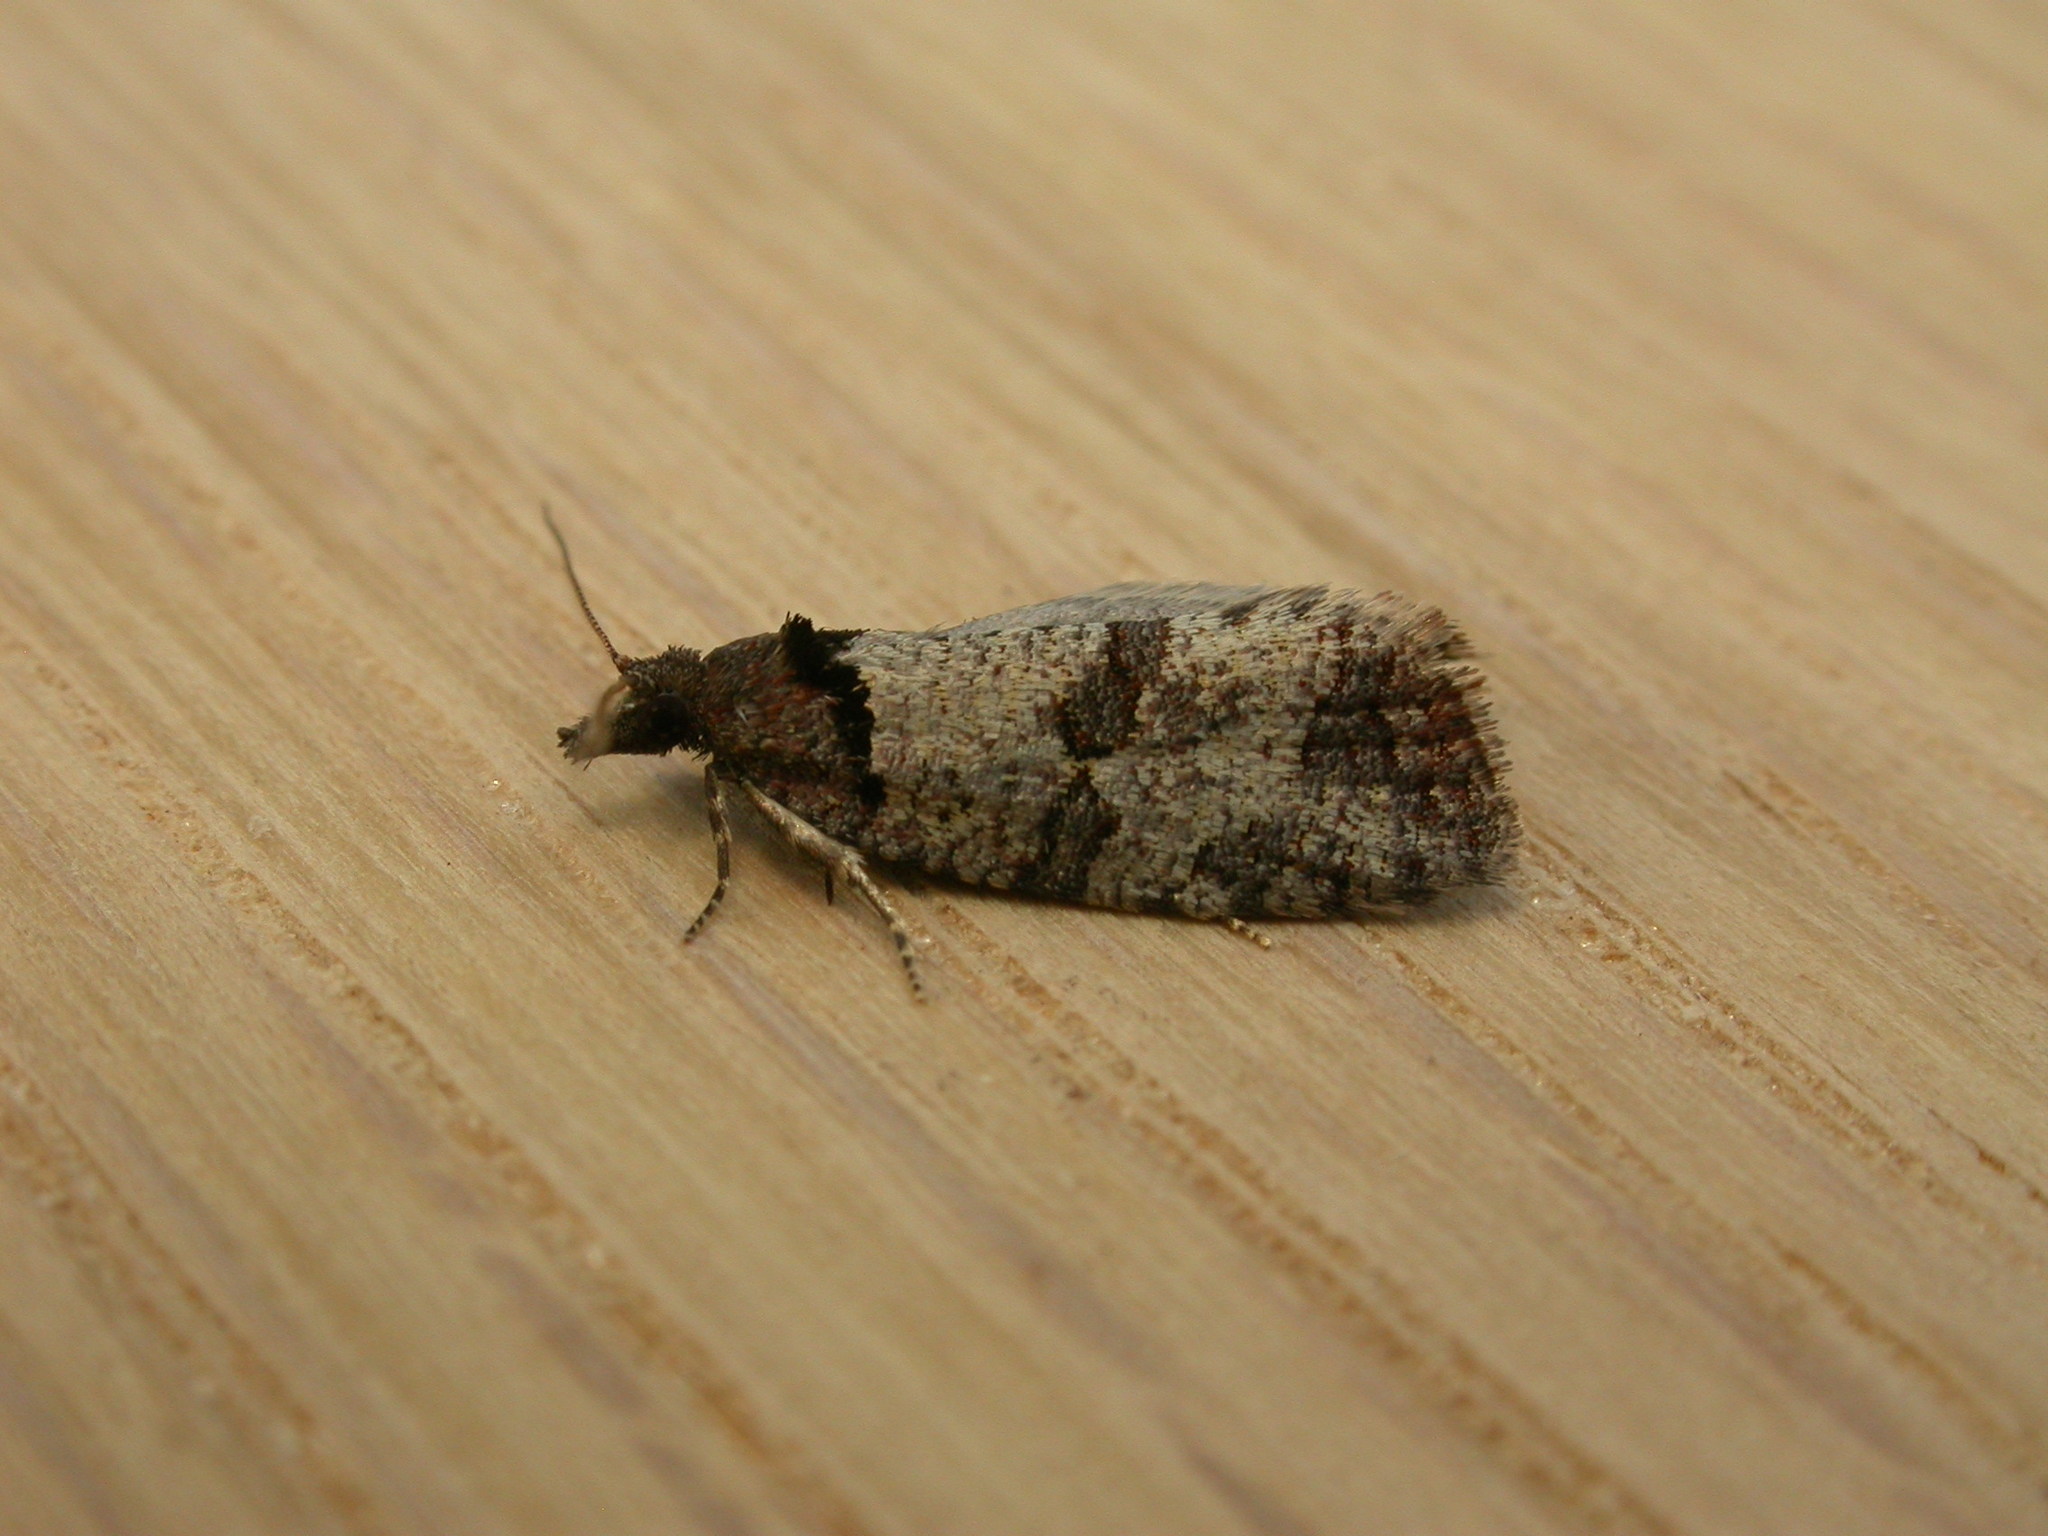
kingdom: Animalia
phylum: Arthropoda
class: Insecta
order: Lepidoptera
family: Tortricidae
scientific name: Tortricidae
